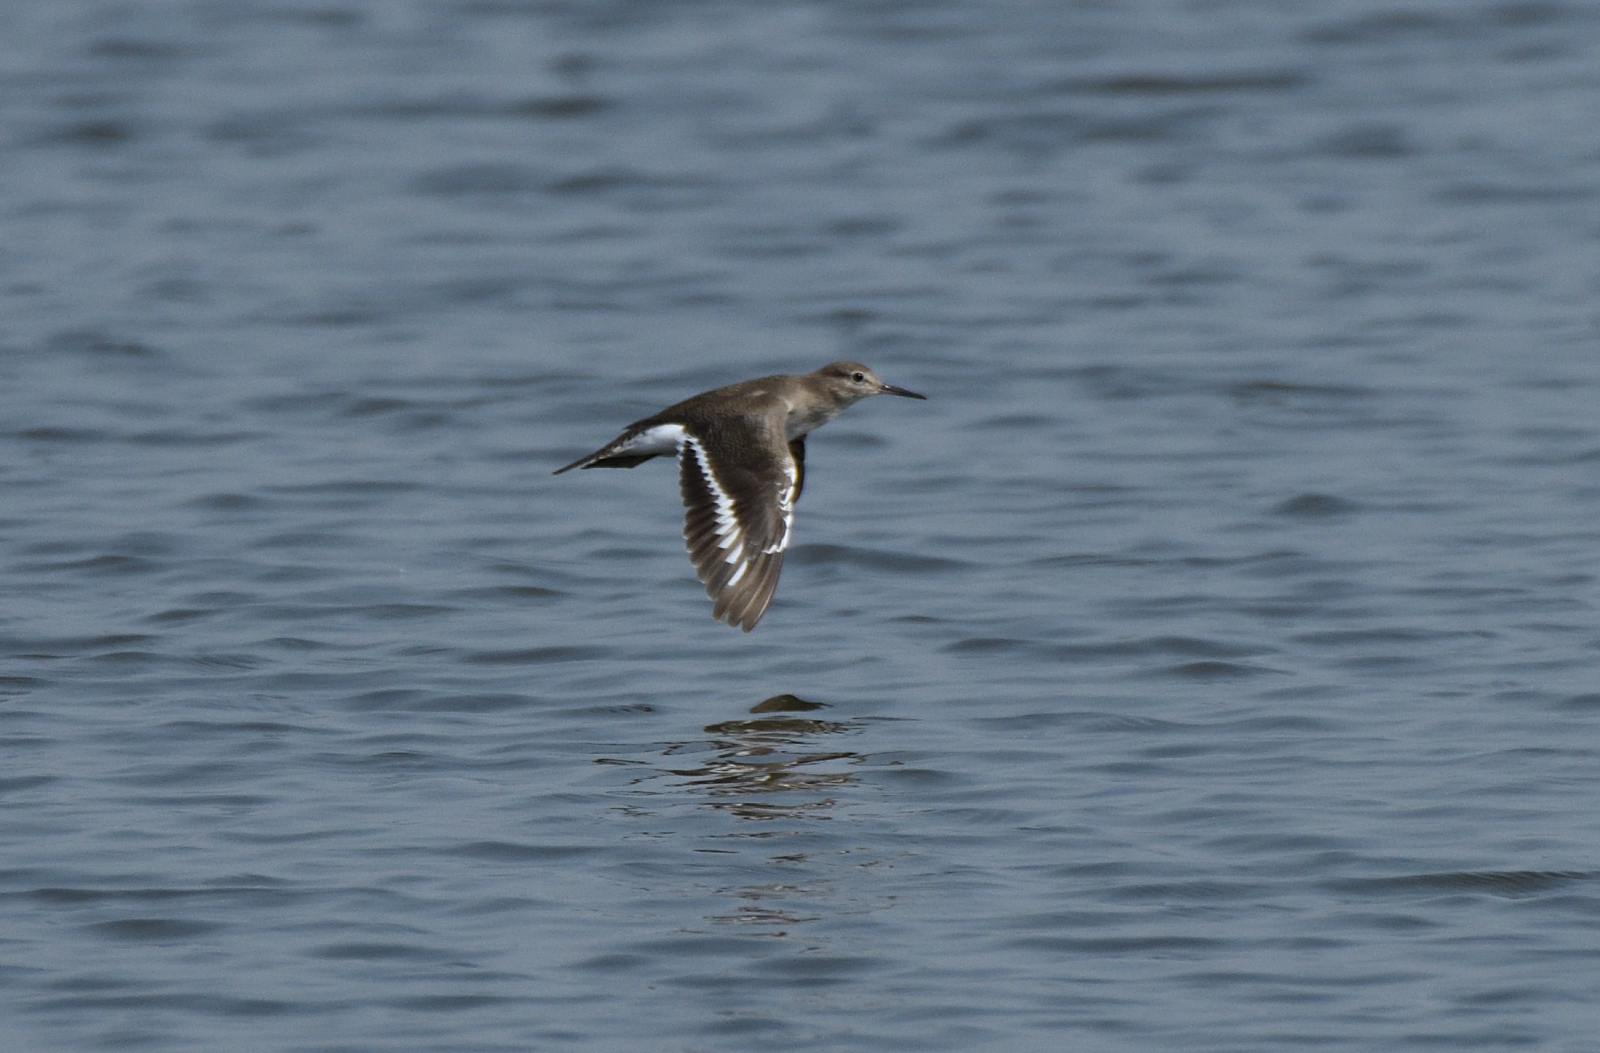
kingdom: Animalia
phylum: Chordata
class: Aves
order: Charadriiformes
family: Scolopacidae
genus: Actitis
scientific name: Actitis hypoleucos
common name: Common sandpiper
